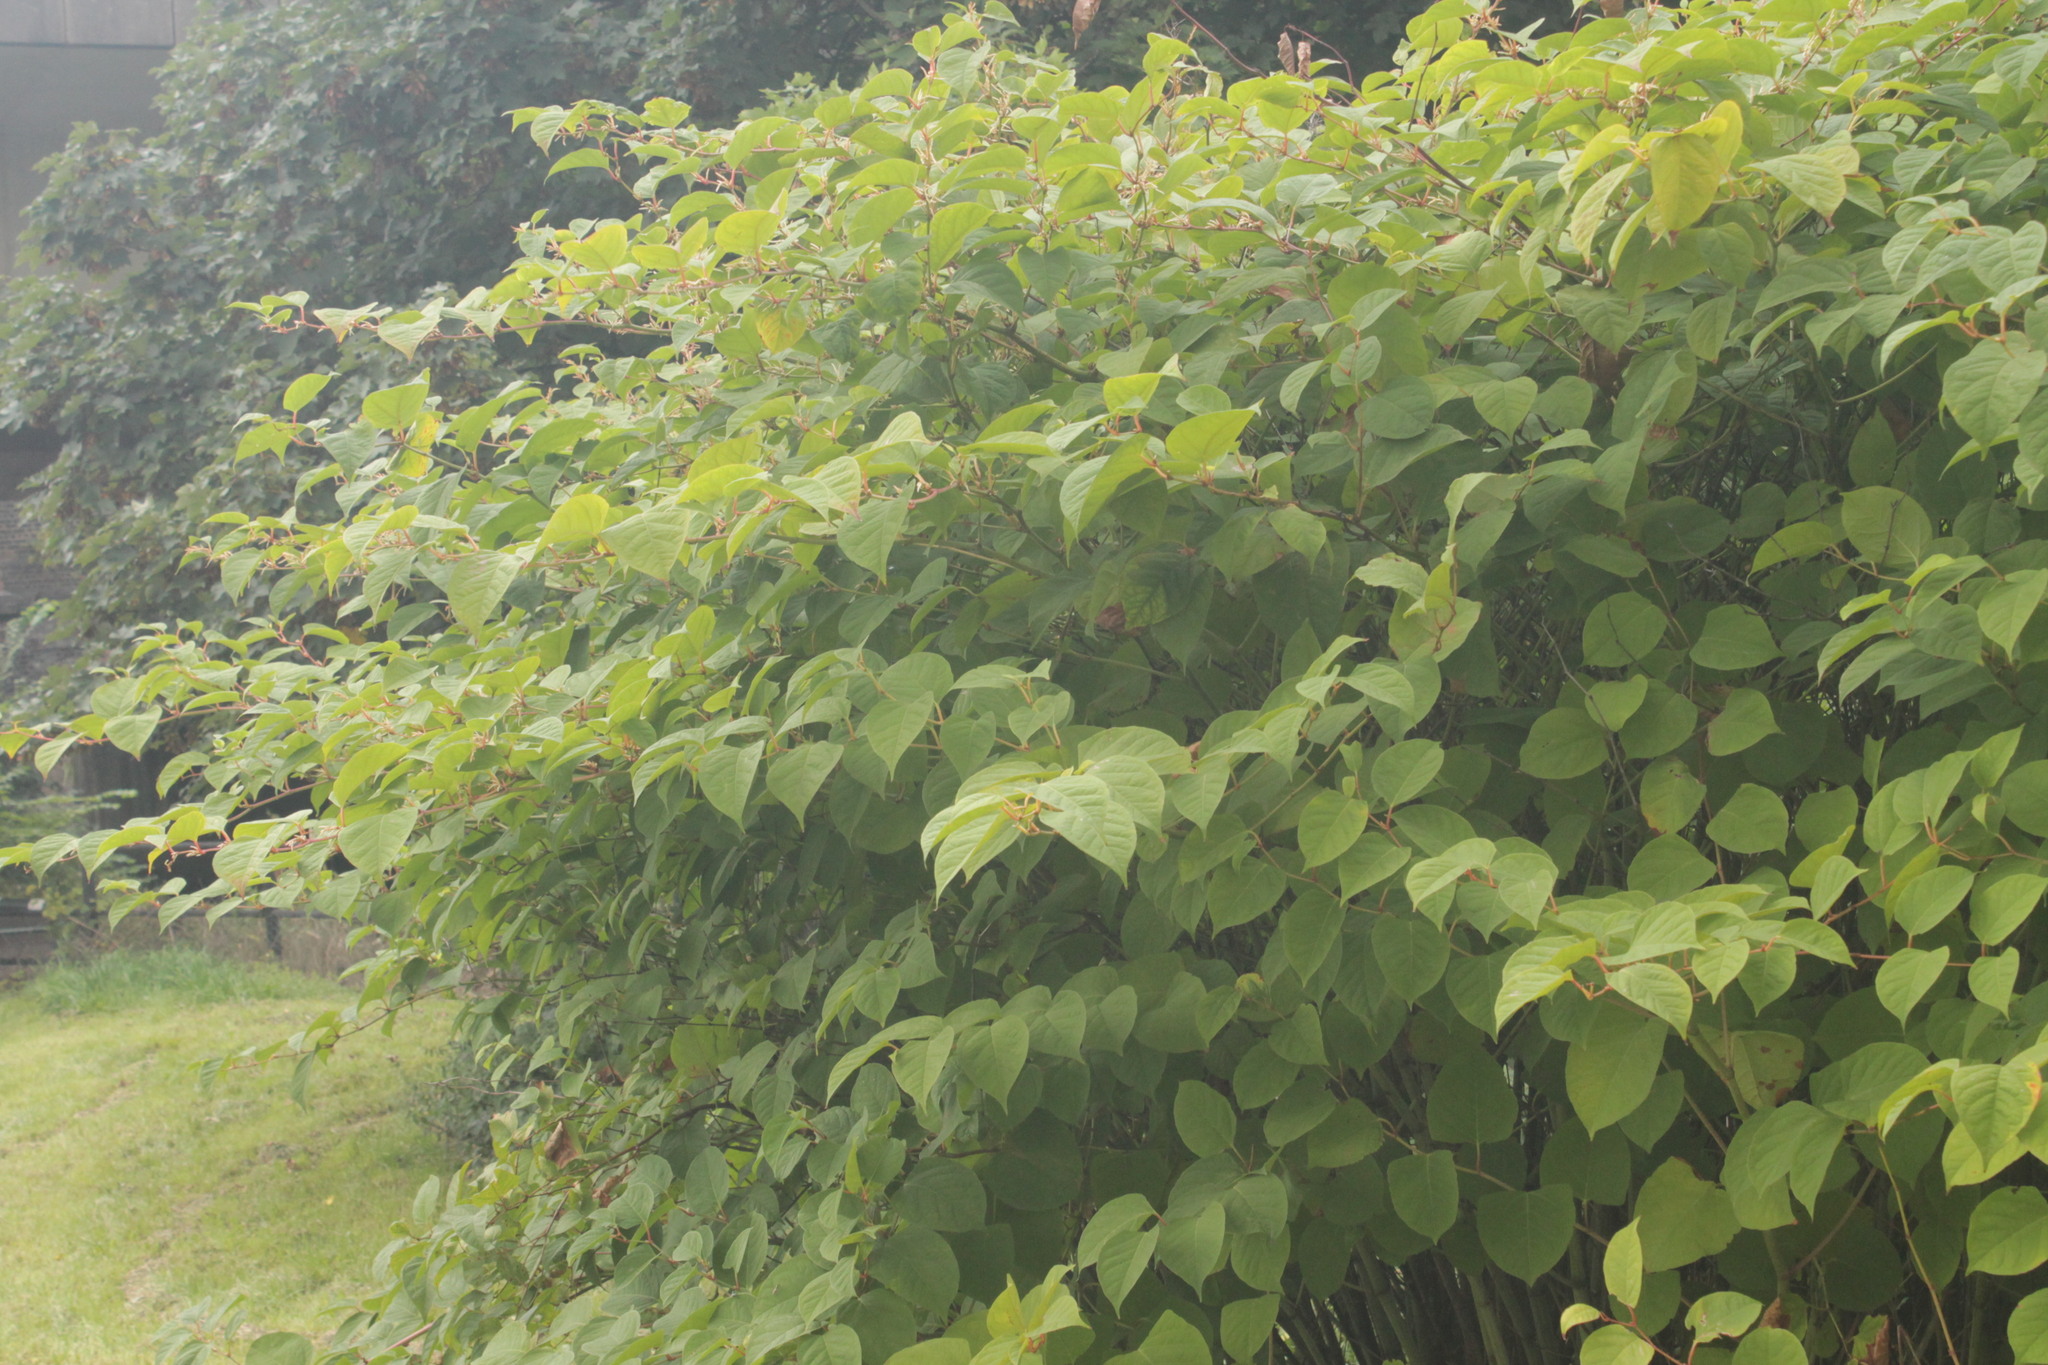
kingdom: Plantae
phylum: Tracheophyta
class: Magnoliopsida
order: Caryophyllales
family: Polygonaceae
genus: Reynoutria
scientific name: Reynoutria japonica
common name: Japanese knotweed
